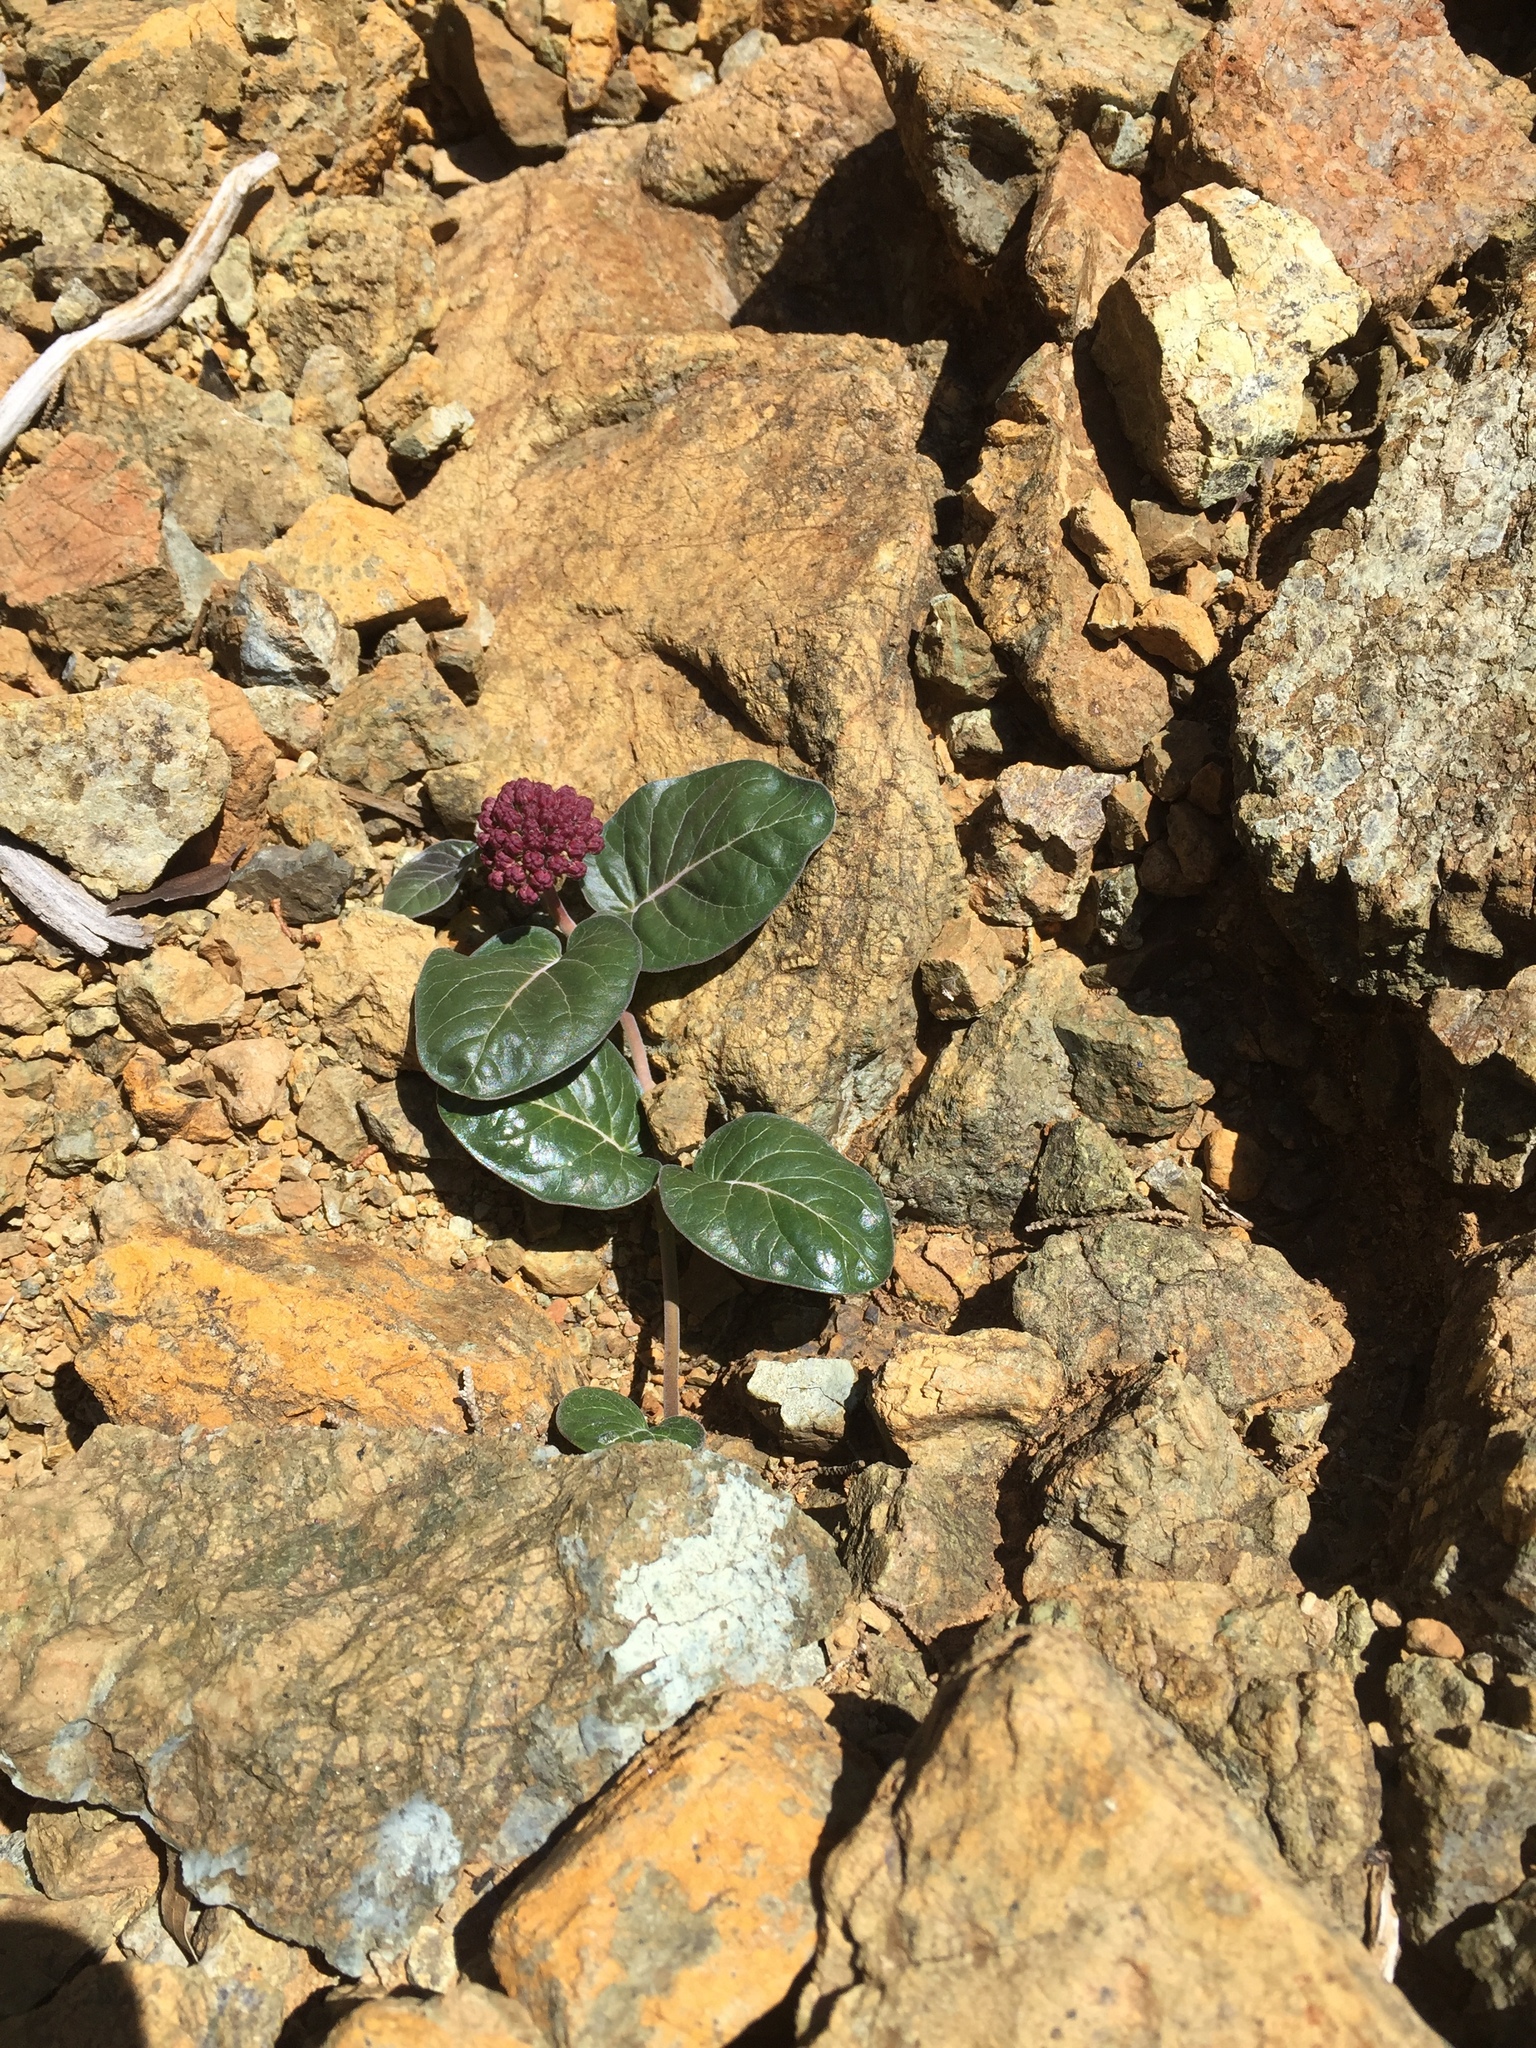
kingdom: Plantae
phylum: Tracheophyta
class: Magnoliopsida
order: Gentianales
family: Apocynaceae
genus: Asclepias
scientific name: Asclepias solanoana
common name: Serpentine milkweed
